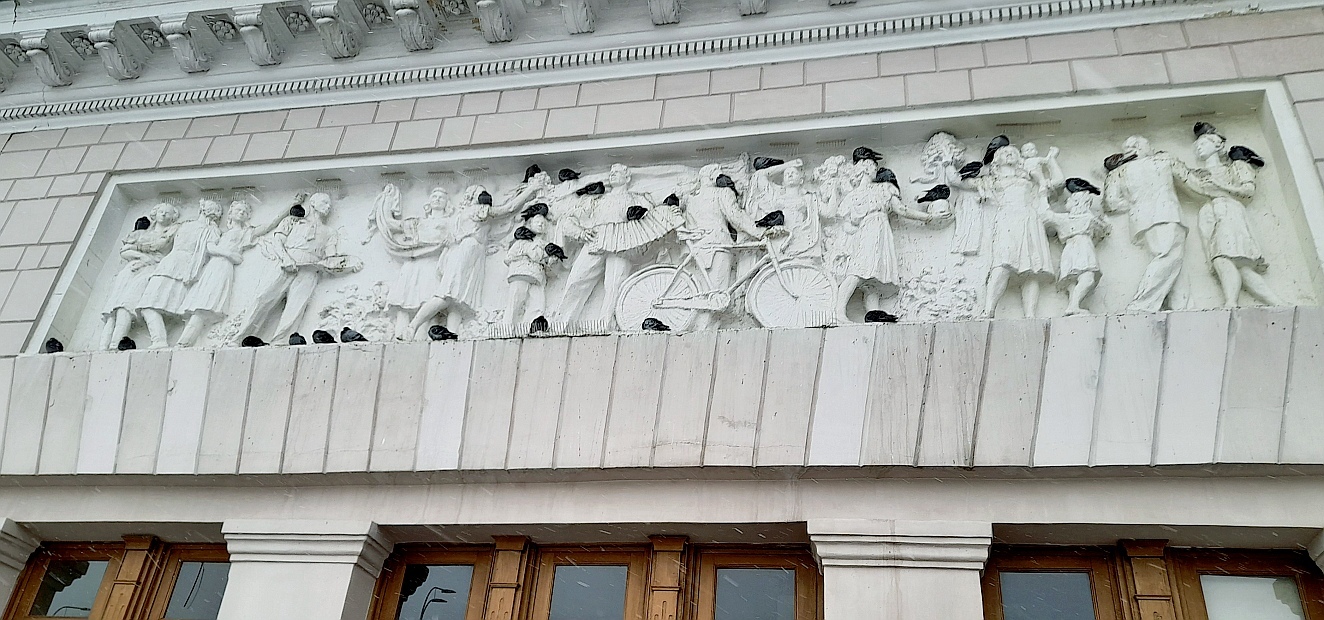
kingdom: Animalia
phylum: Chordata
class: Aves
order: Columbiformes
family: Columbidae
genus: Columba
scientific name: Columba livia
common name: Rock pigeon
